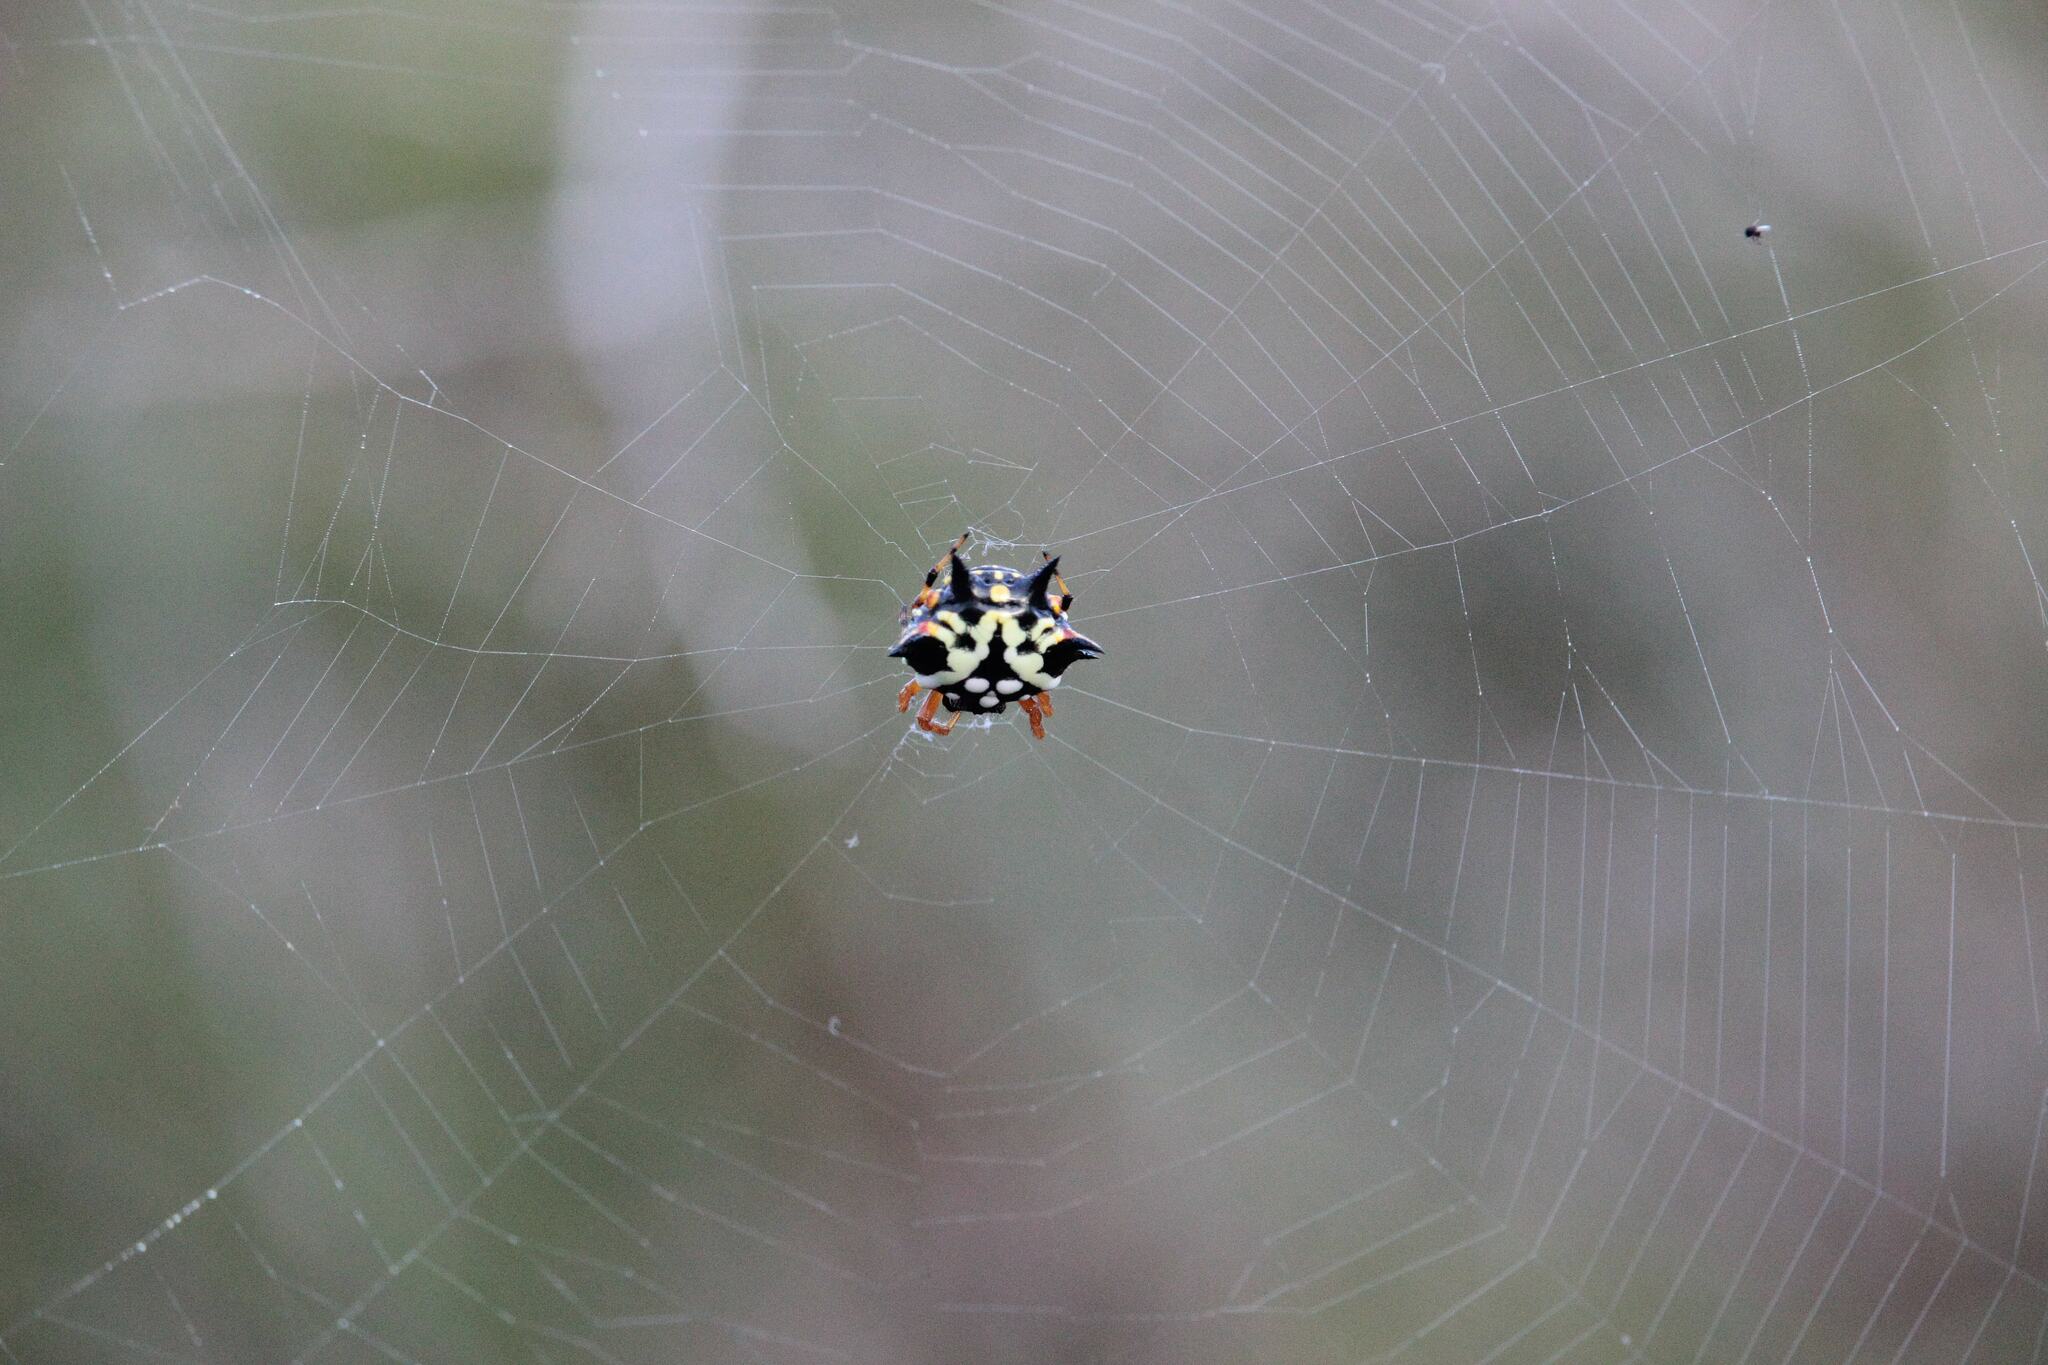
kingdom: Animalia
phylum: Arthropoda
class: Arachnida
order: Araneae
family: Araneidae
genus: Austracantha
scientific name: Austracantha minax
